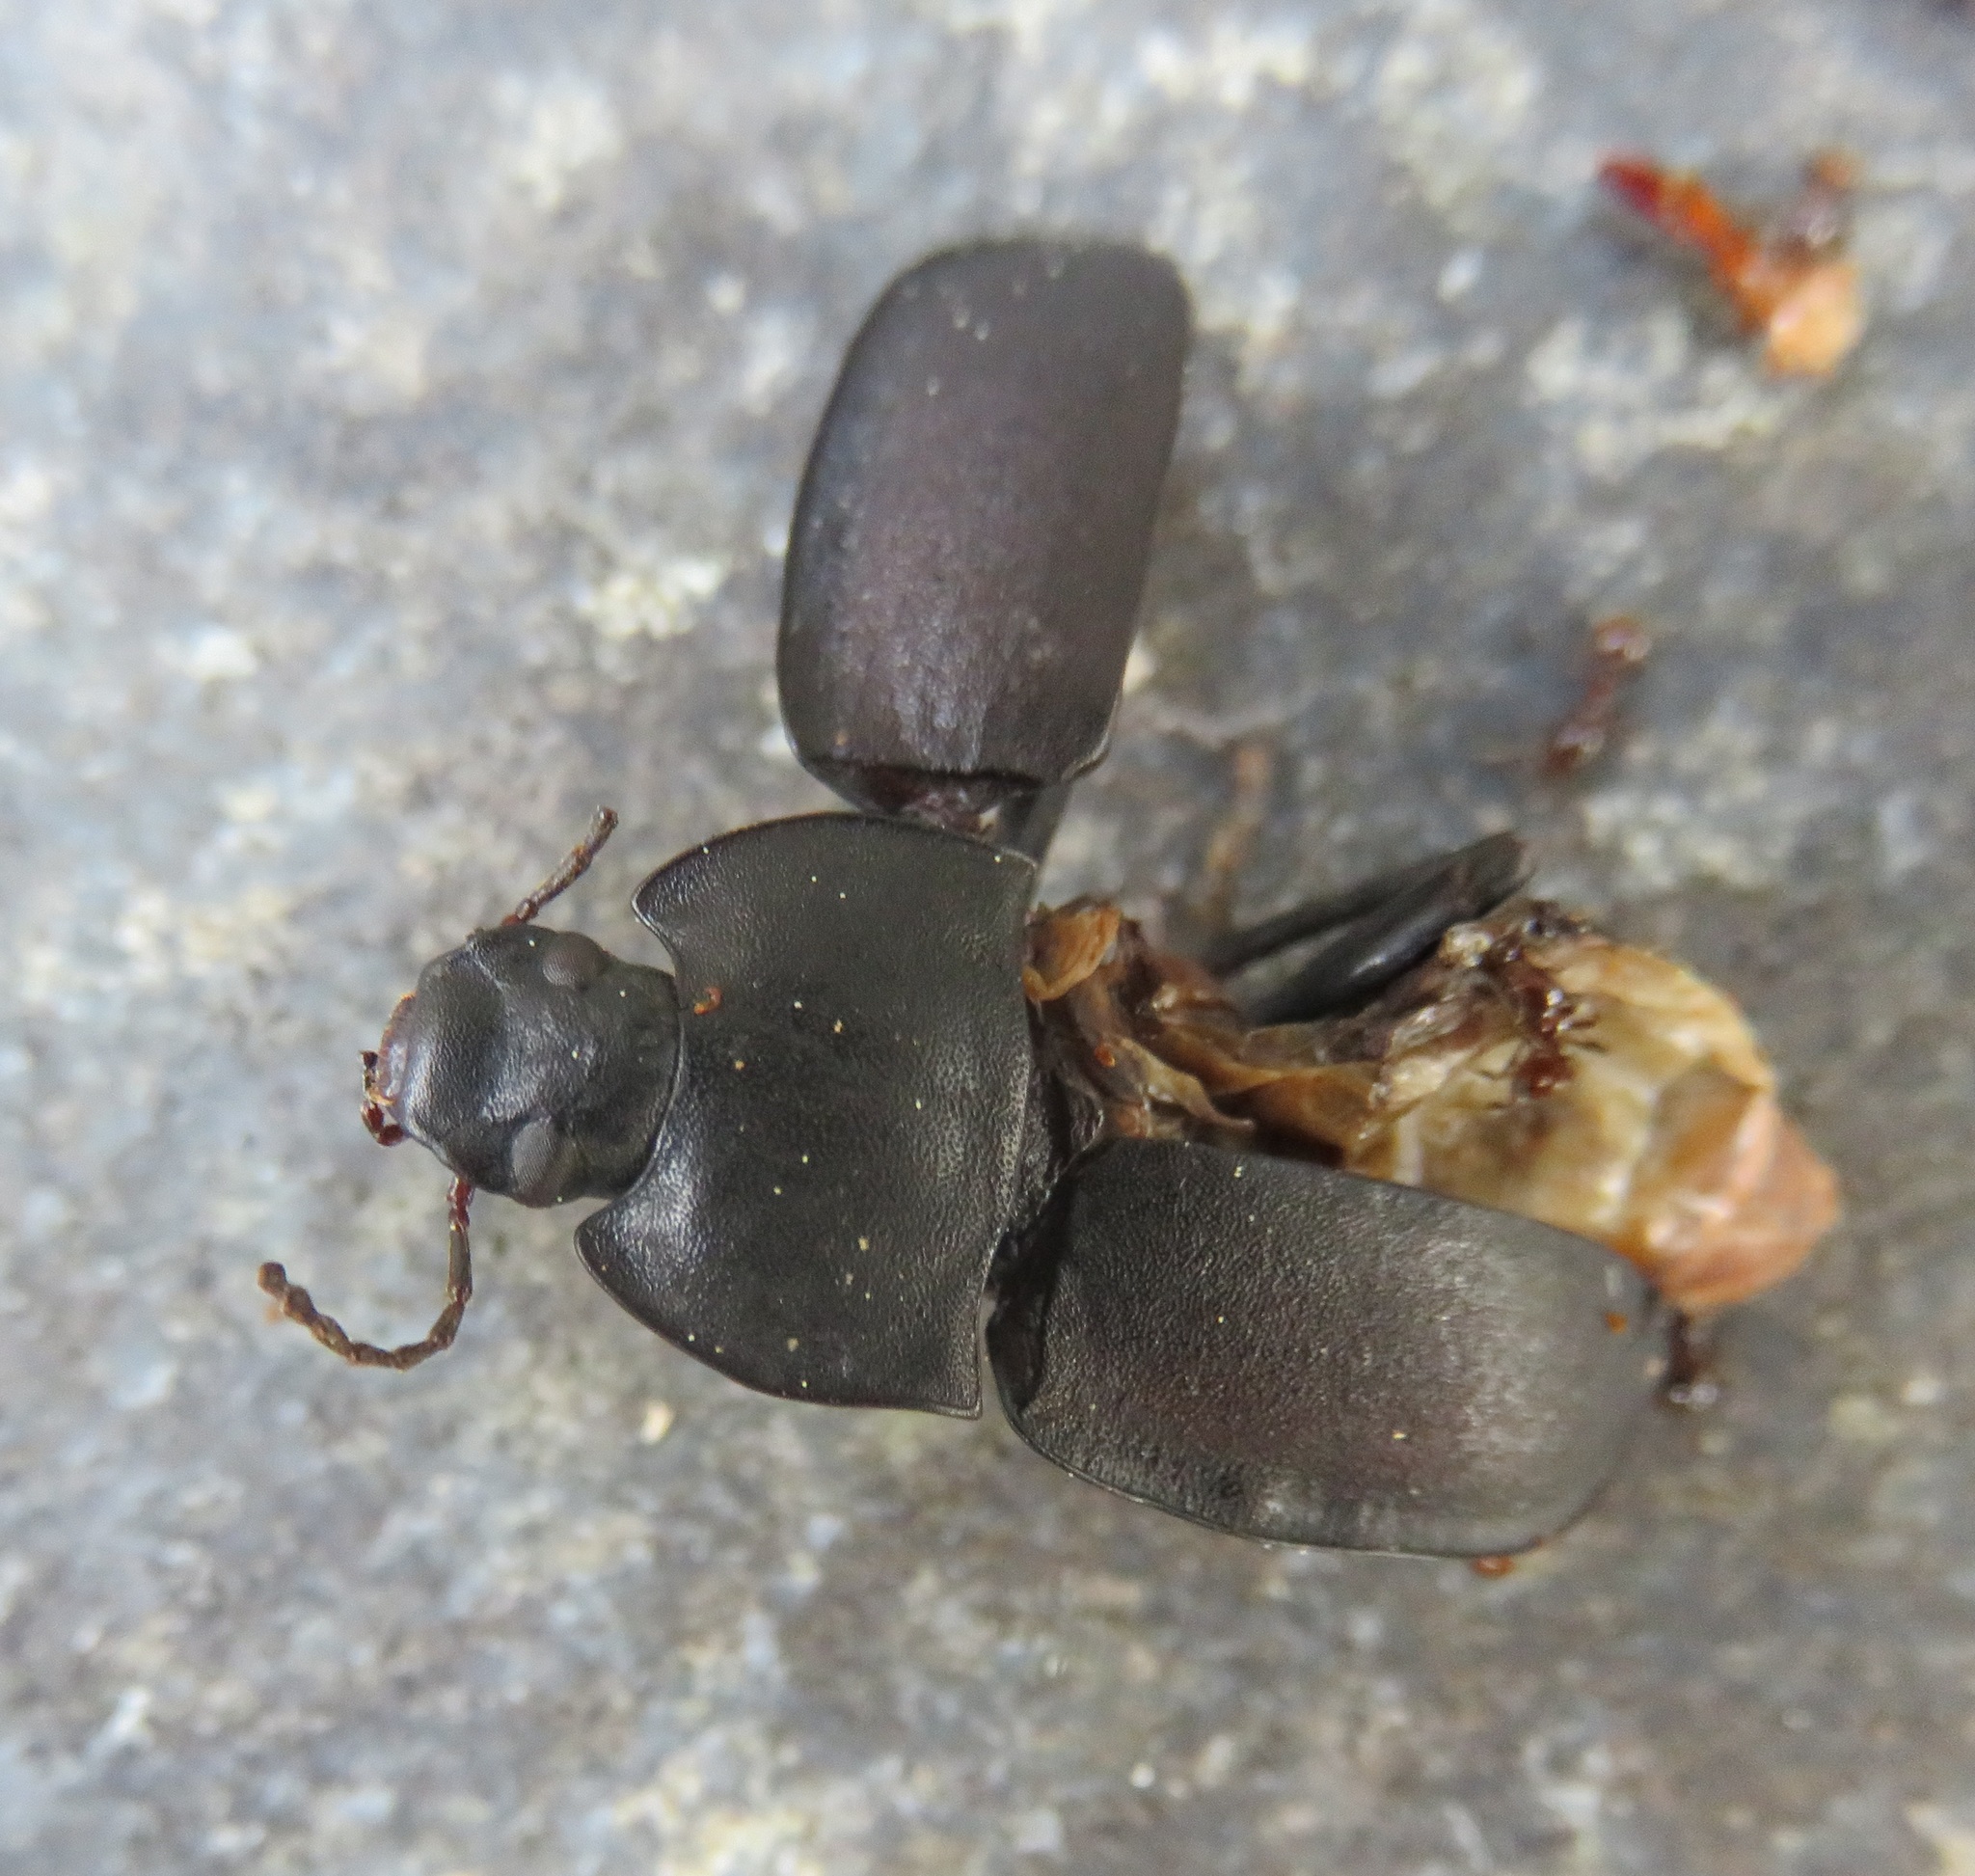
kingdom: Animalia
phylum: Arthropoda
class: Insecta
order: Coleoptera
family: Tenebrionidae
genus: Mimopeus
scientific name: Mimopeus
